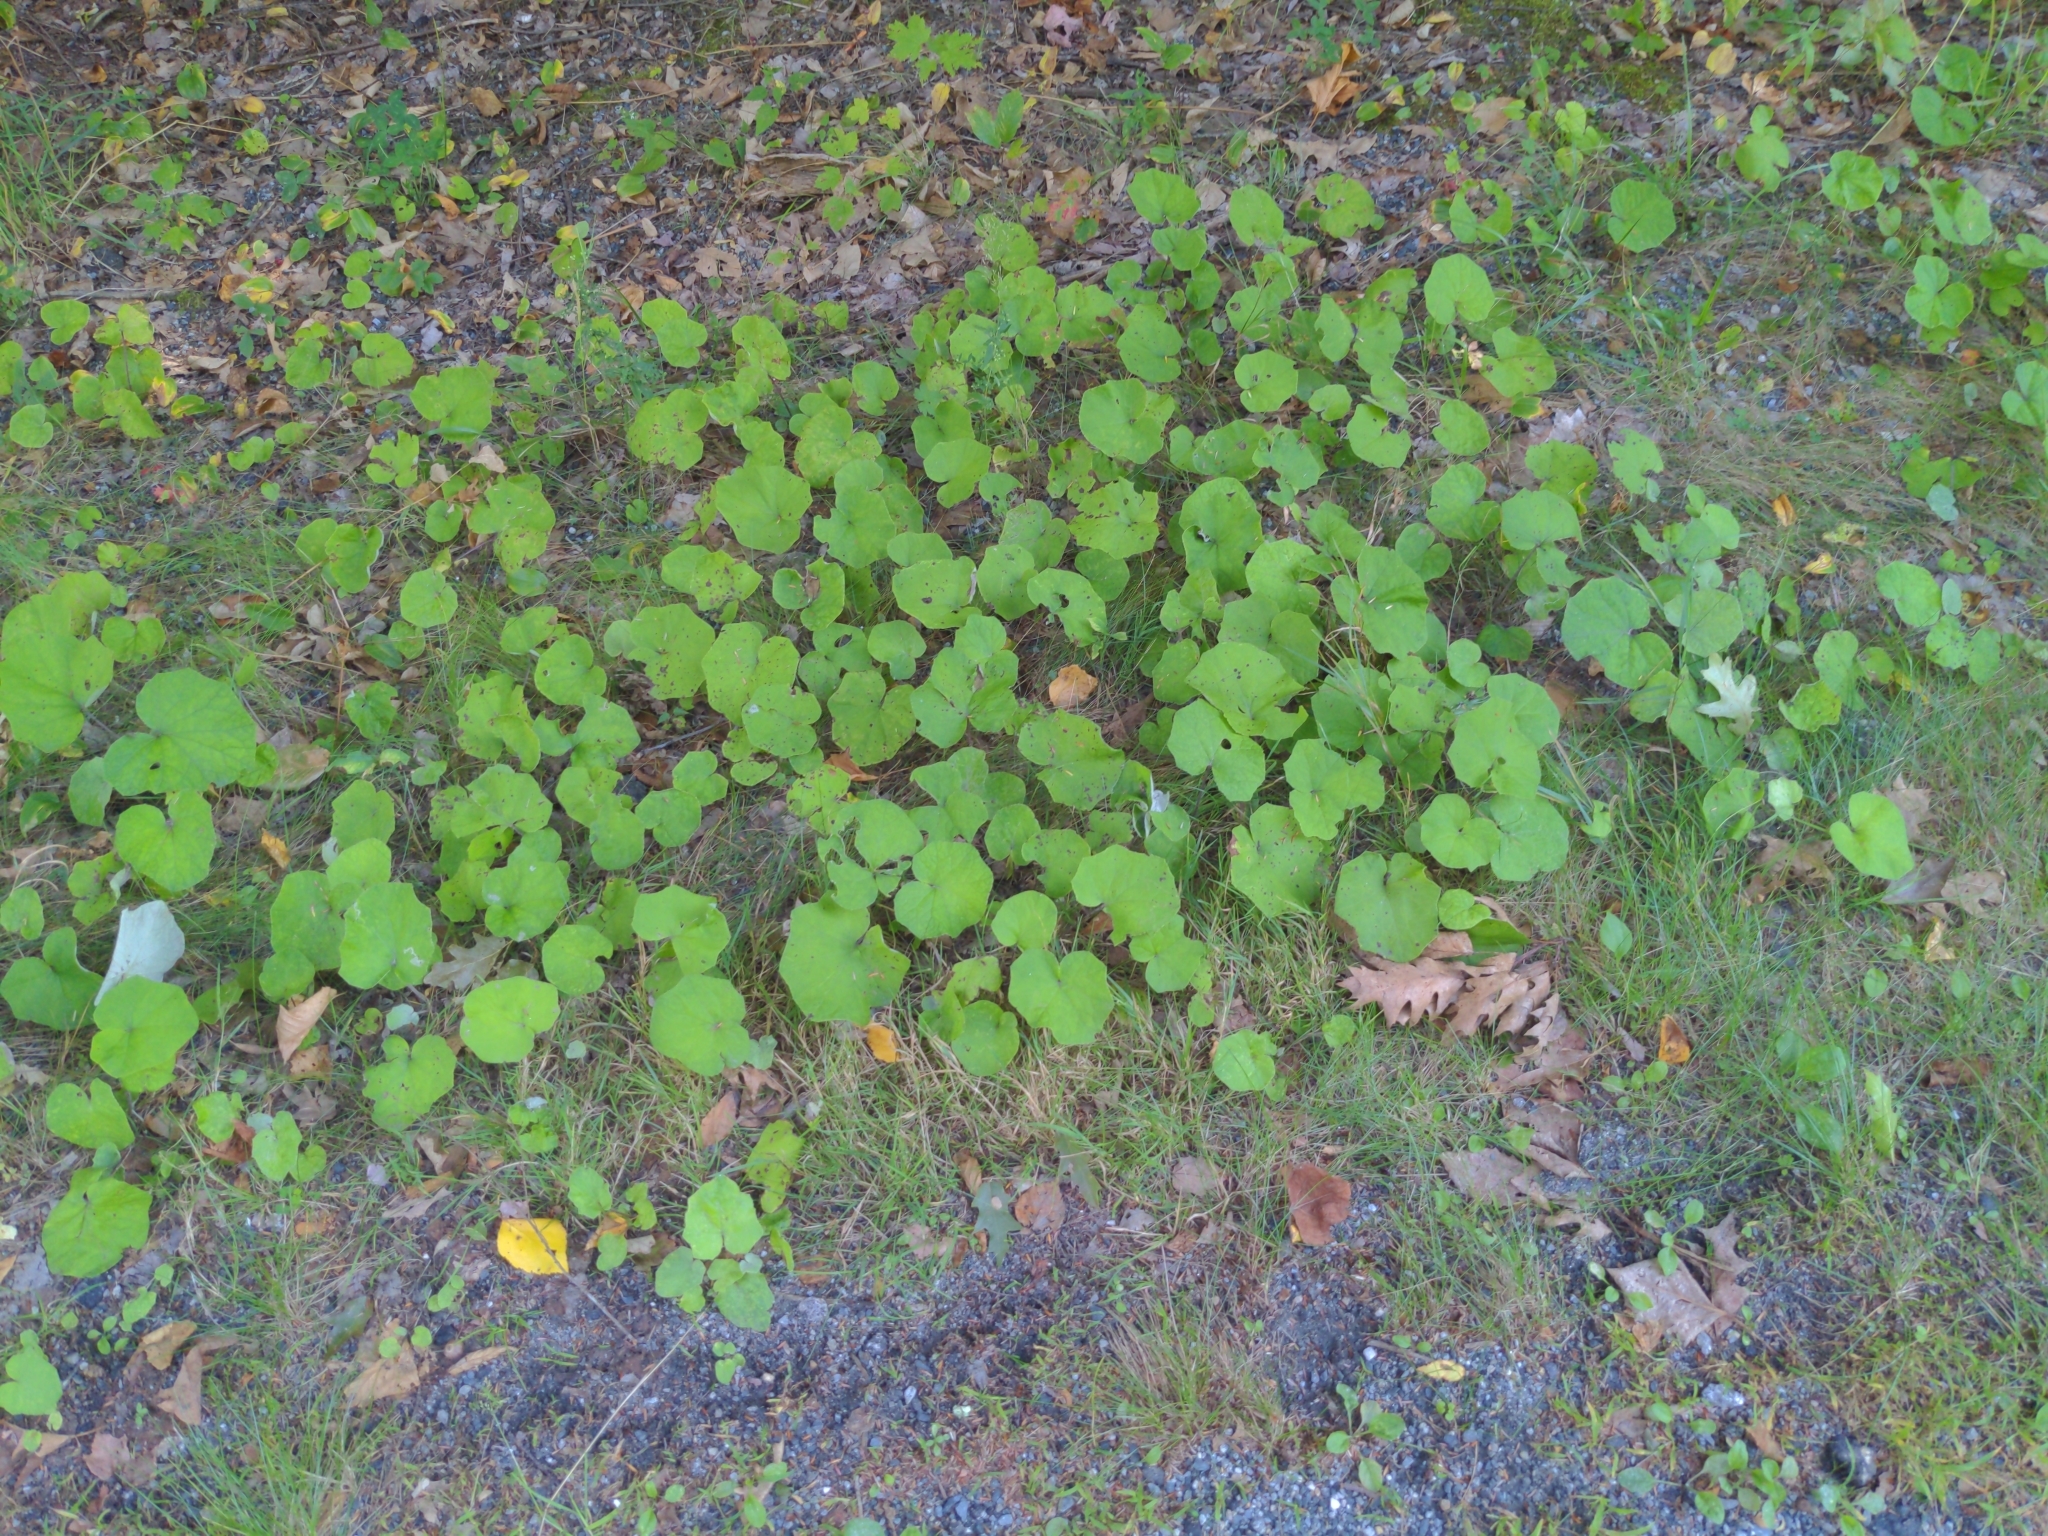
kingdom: Plantae
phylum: Tracheophyta
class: Magnoliopsida
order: Asterales
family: Asteraceae
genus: Tussilago
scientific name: Tussilago farfara
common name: Coltsfoot
